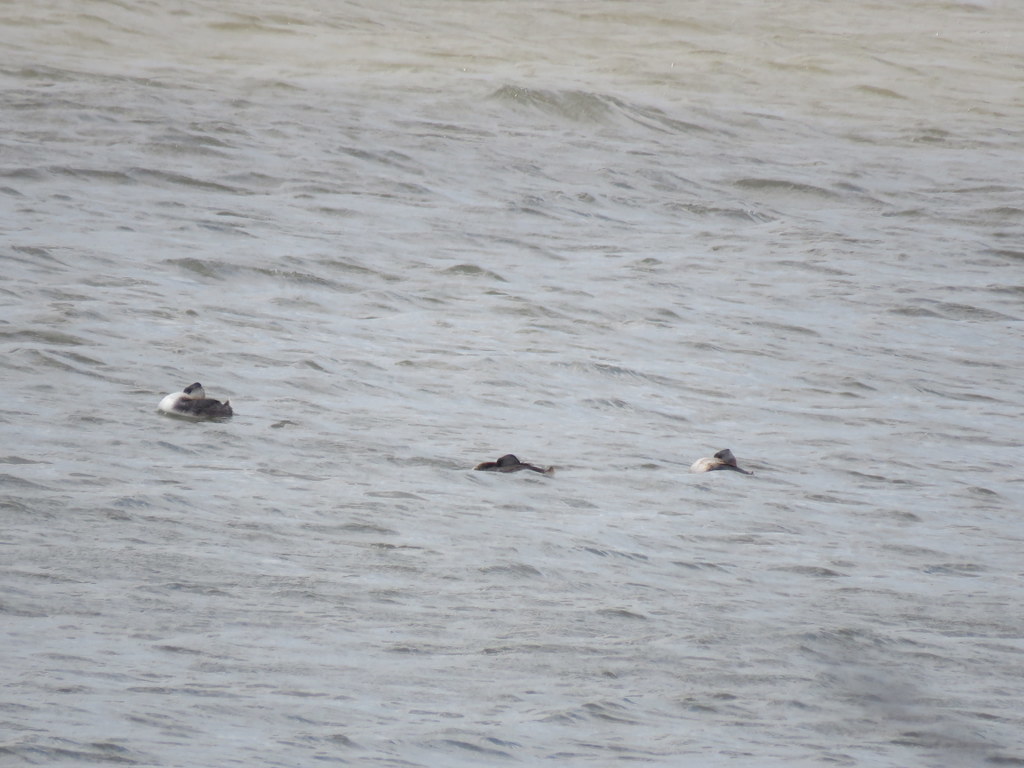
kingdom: Animalia
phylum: Chordata
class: Aves
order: Podicipediformes
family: Podicipedidae
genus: Podiceps
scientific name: Podiceps major
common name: Great grebe
